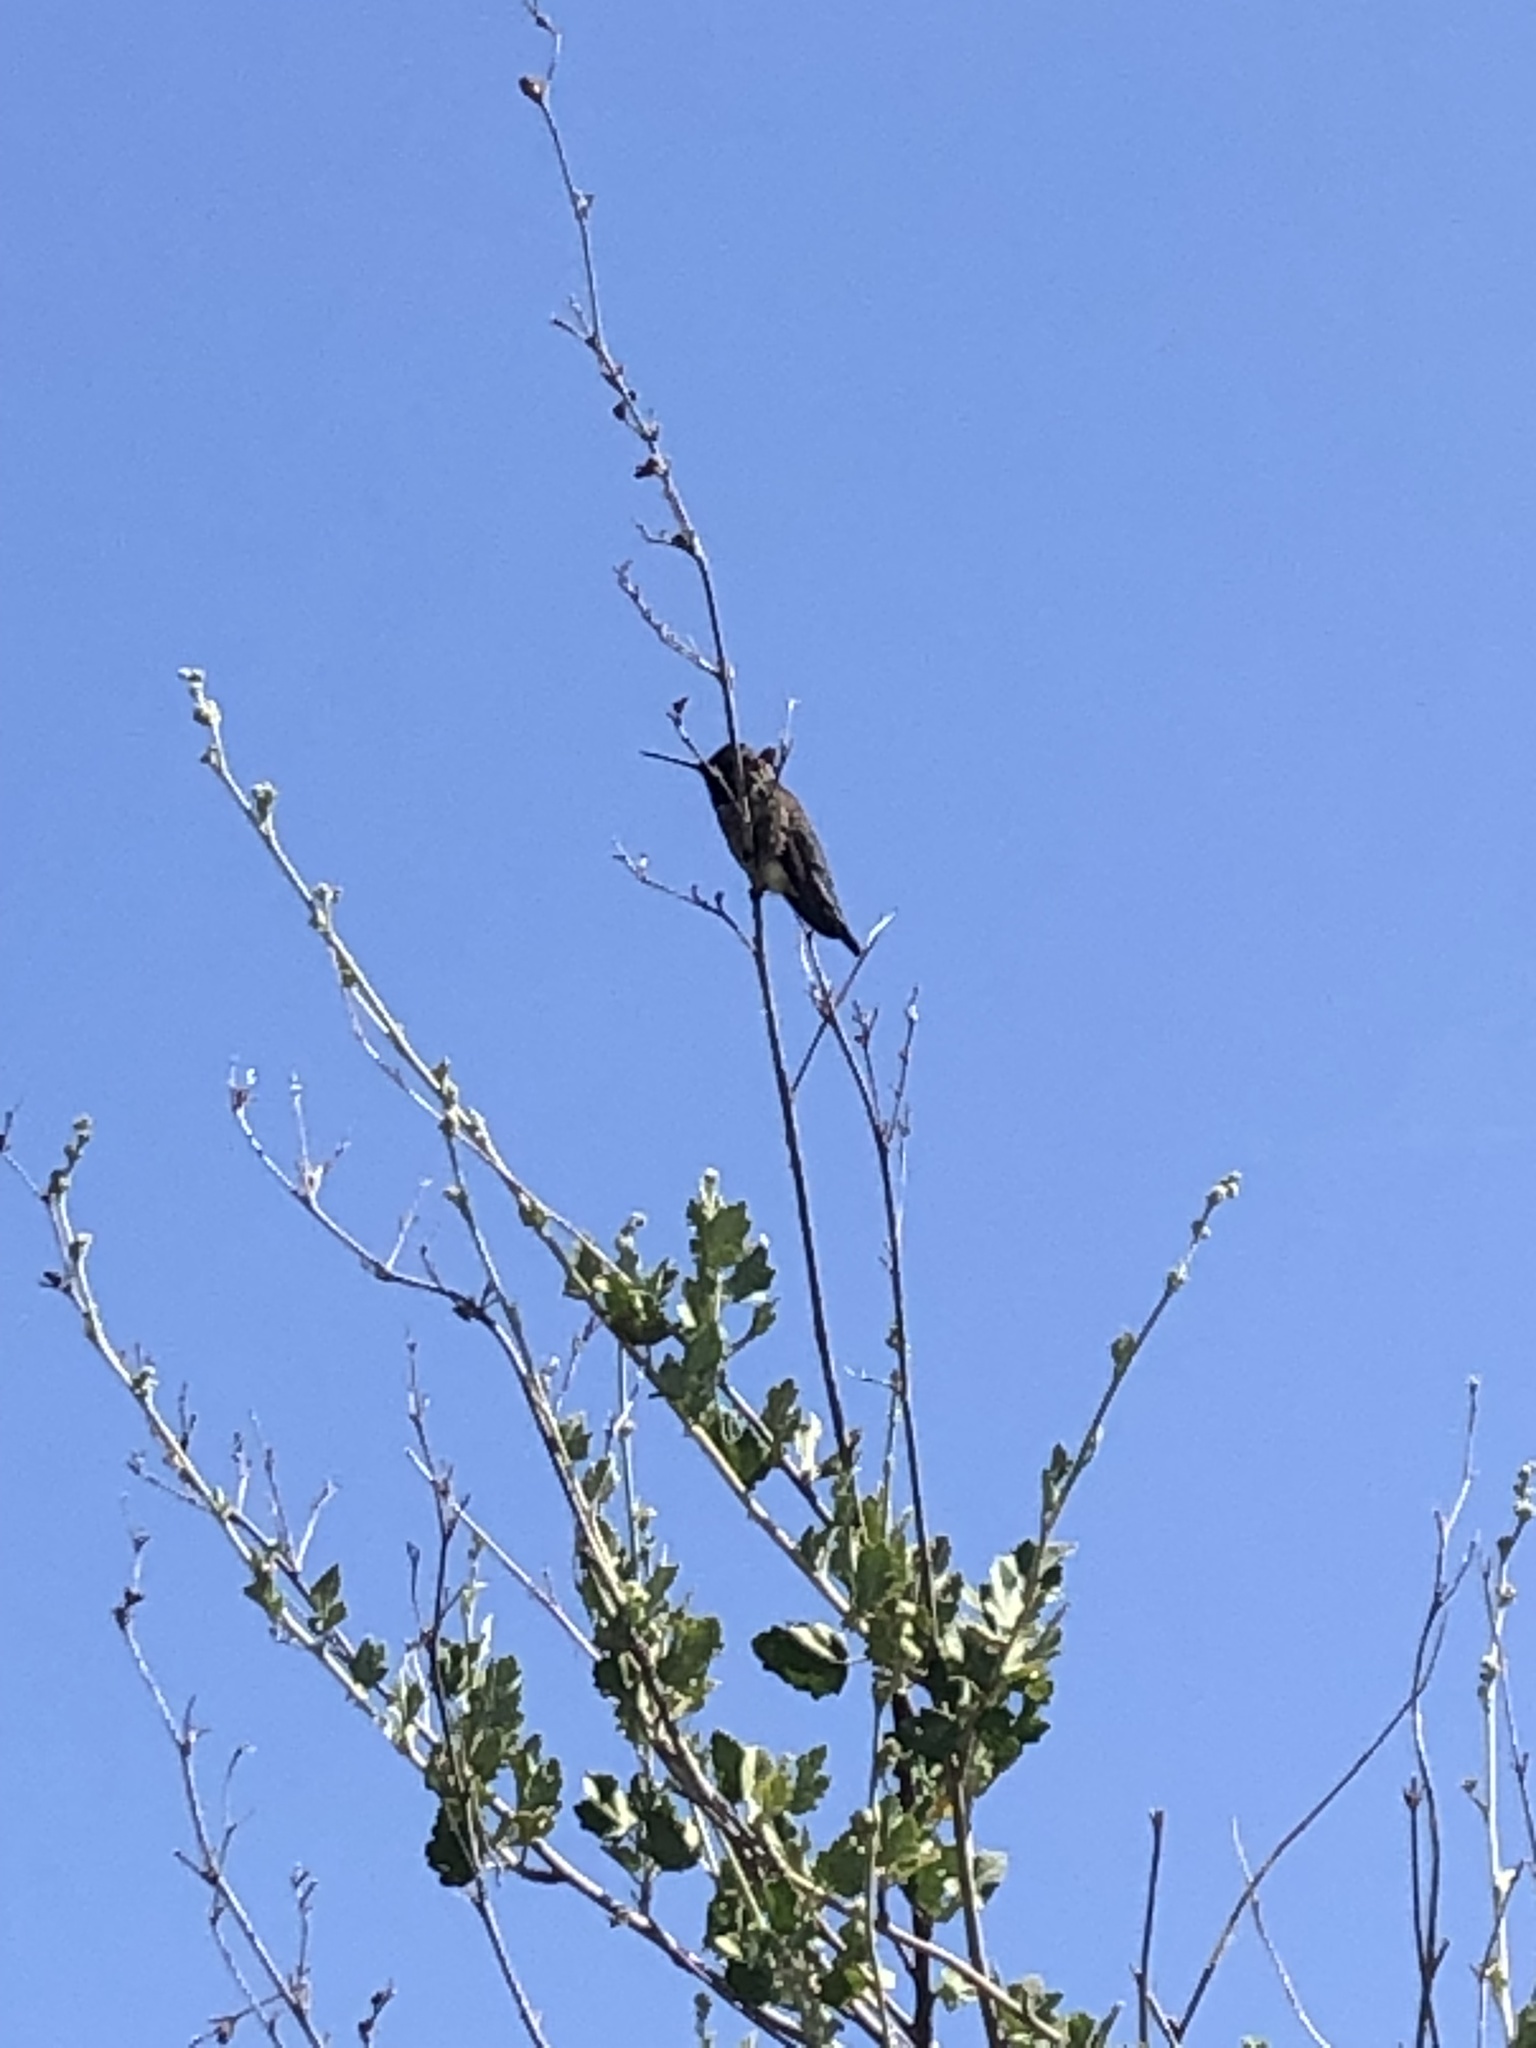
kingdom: Animalia
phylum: Chordata
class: Aves
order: Apodiformes
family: Trochilidae
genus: Calypte
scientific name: Calypte anna
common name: Anna's hummingbird
